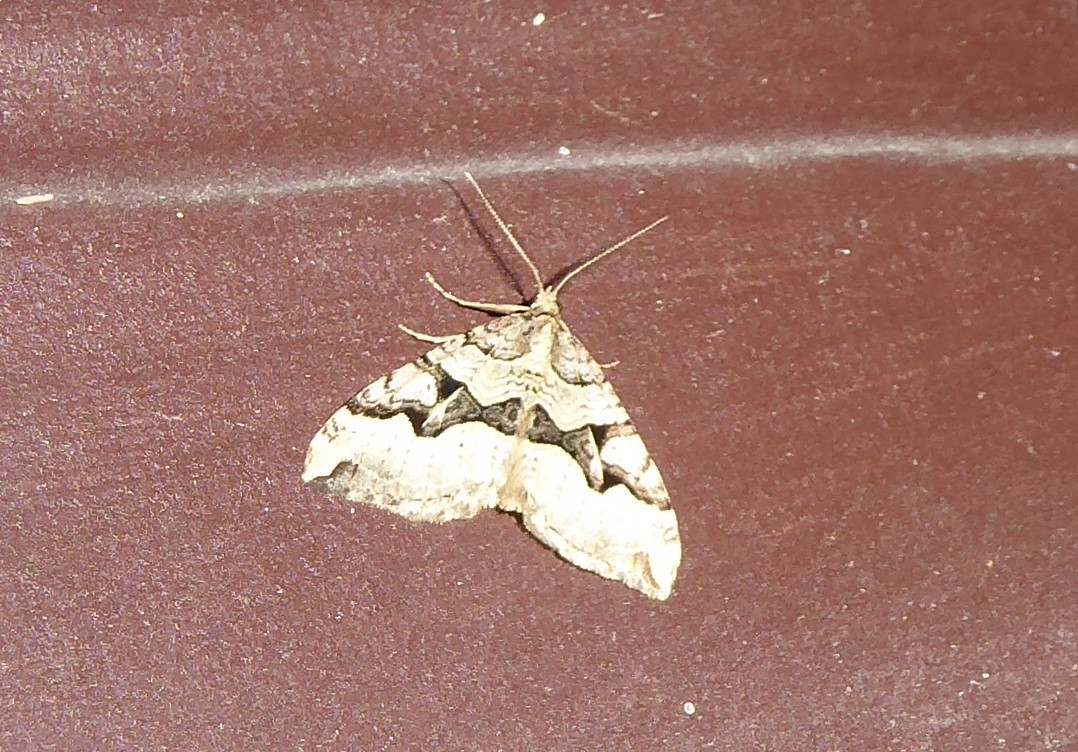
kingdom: Animalia
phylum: Arthropoda
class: Insecta
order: Lepidoptera
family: Geometridae
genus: Xanthorhoe
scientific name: Xanthorhoe semifissata
